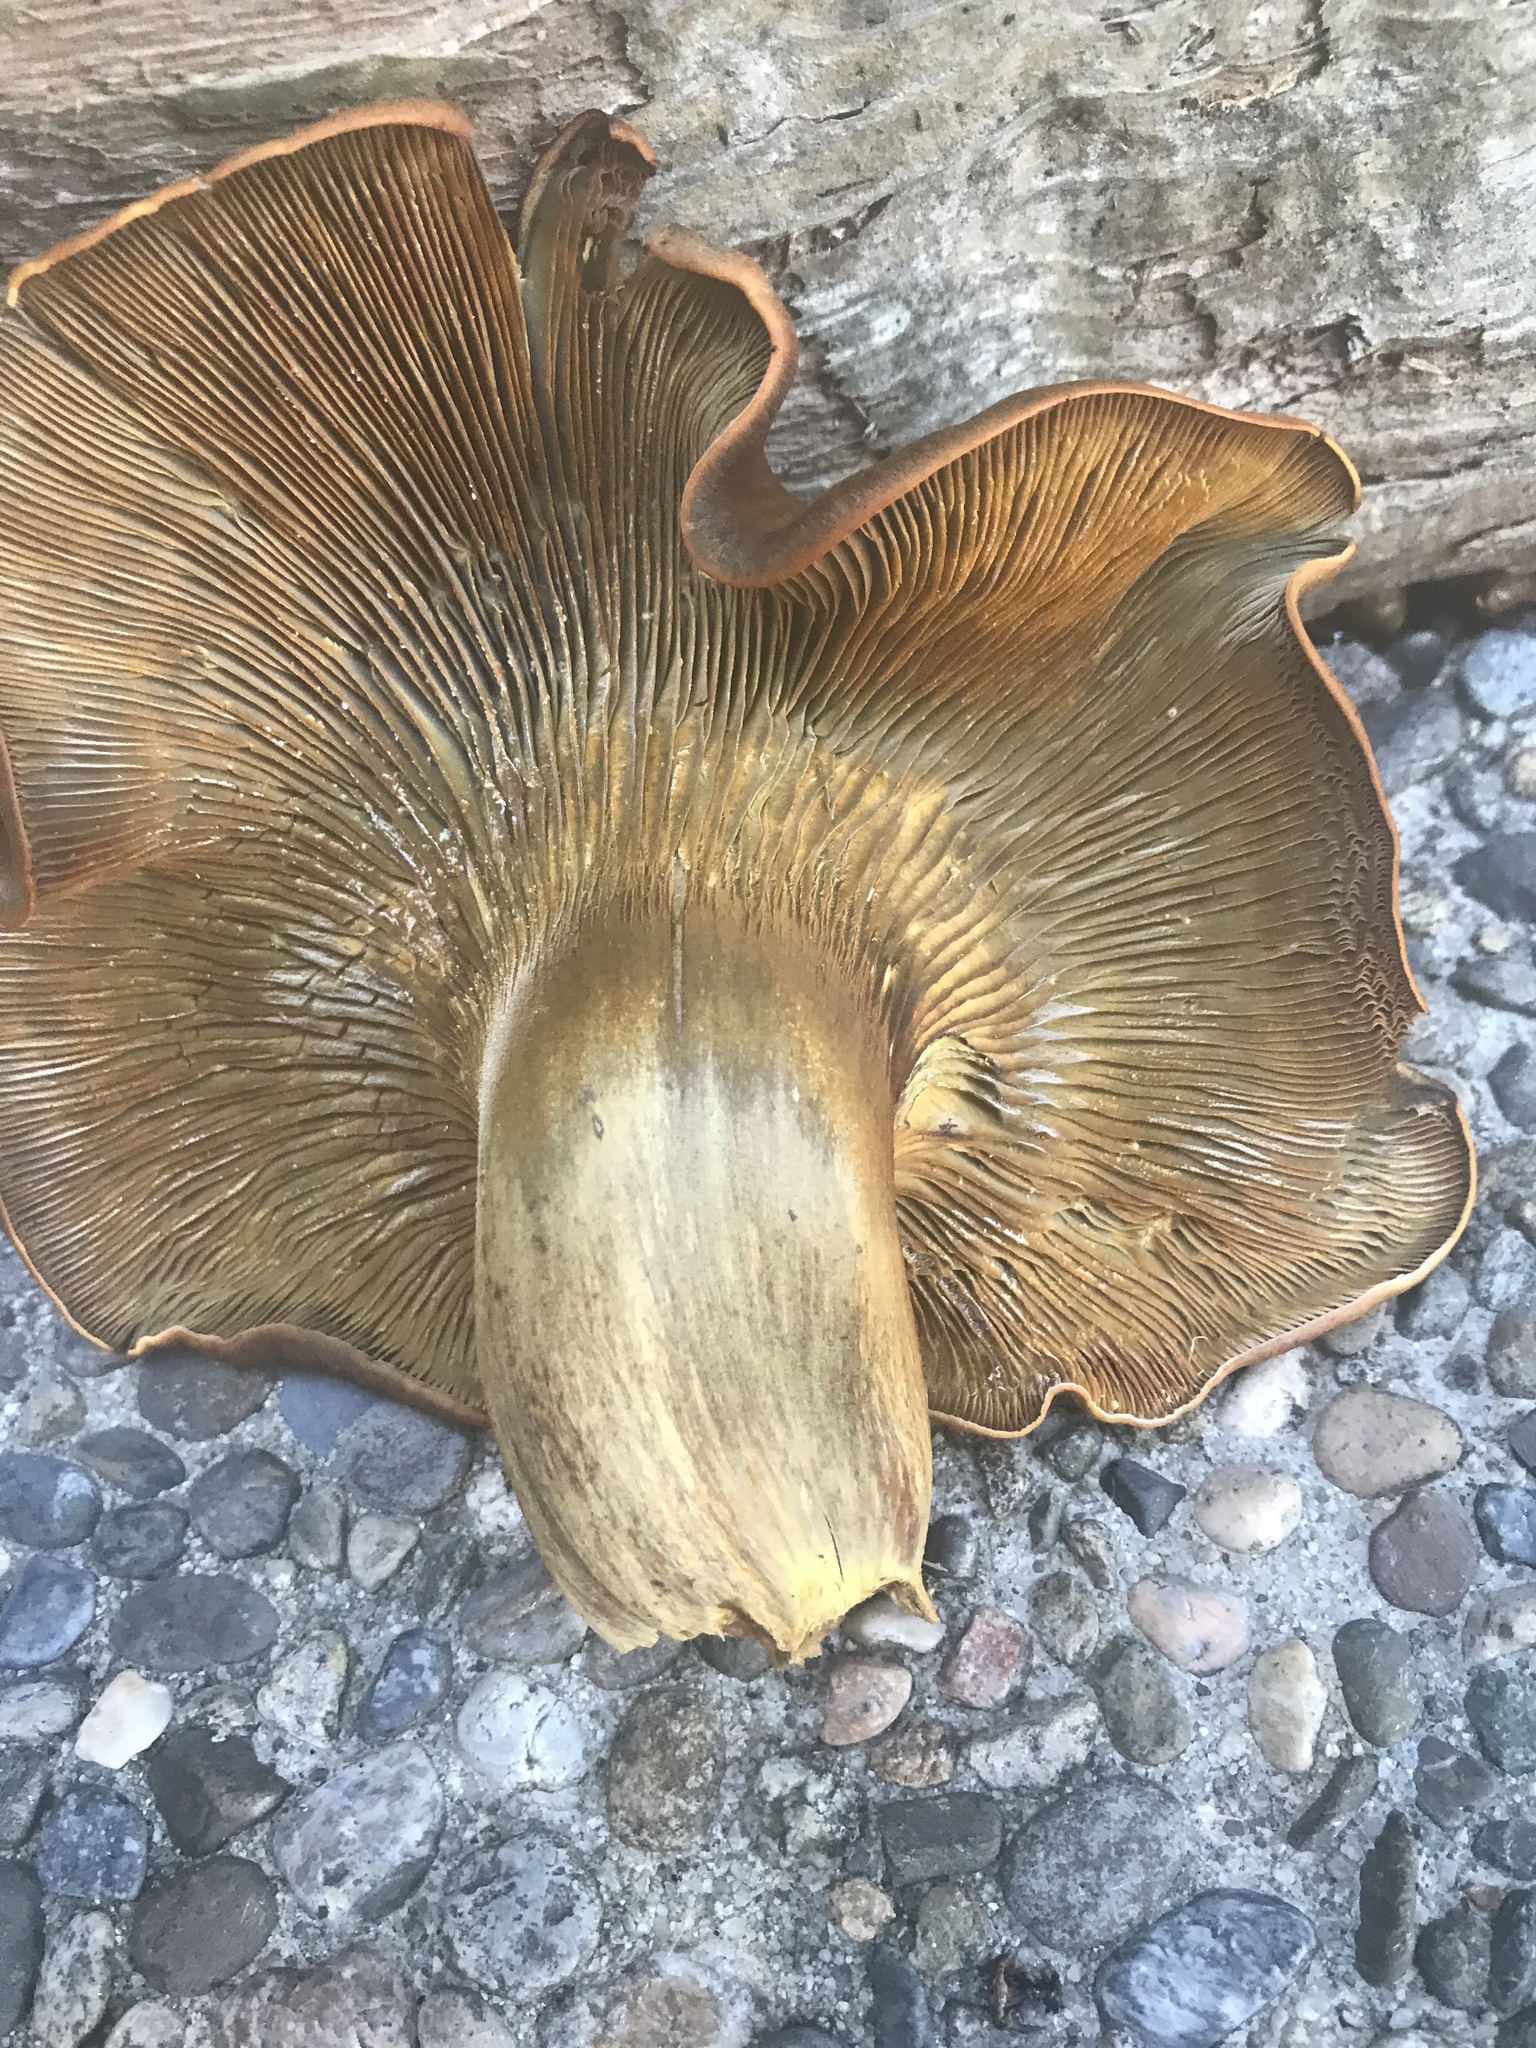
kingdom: Fungi
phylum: Basidiomycota
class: Agaricomycetes
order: Agaricales
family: Omphalotaceae
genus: Omphalotus
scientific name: Omphalotus olivascens
